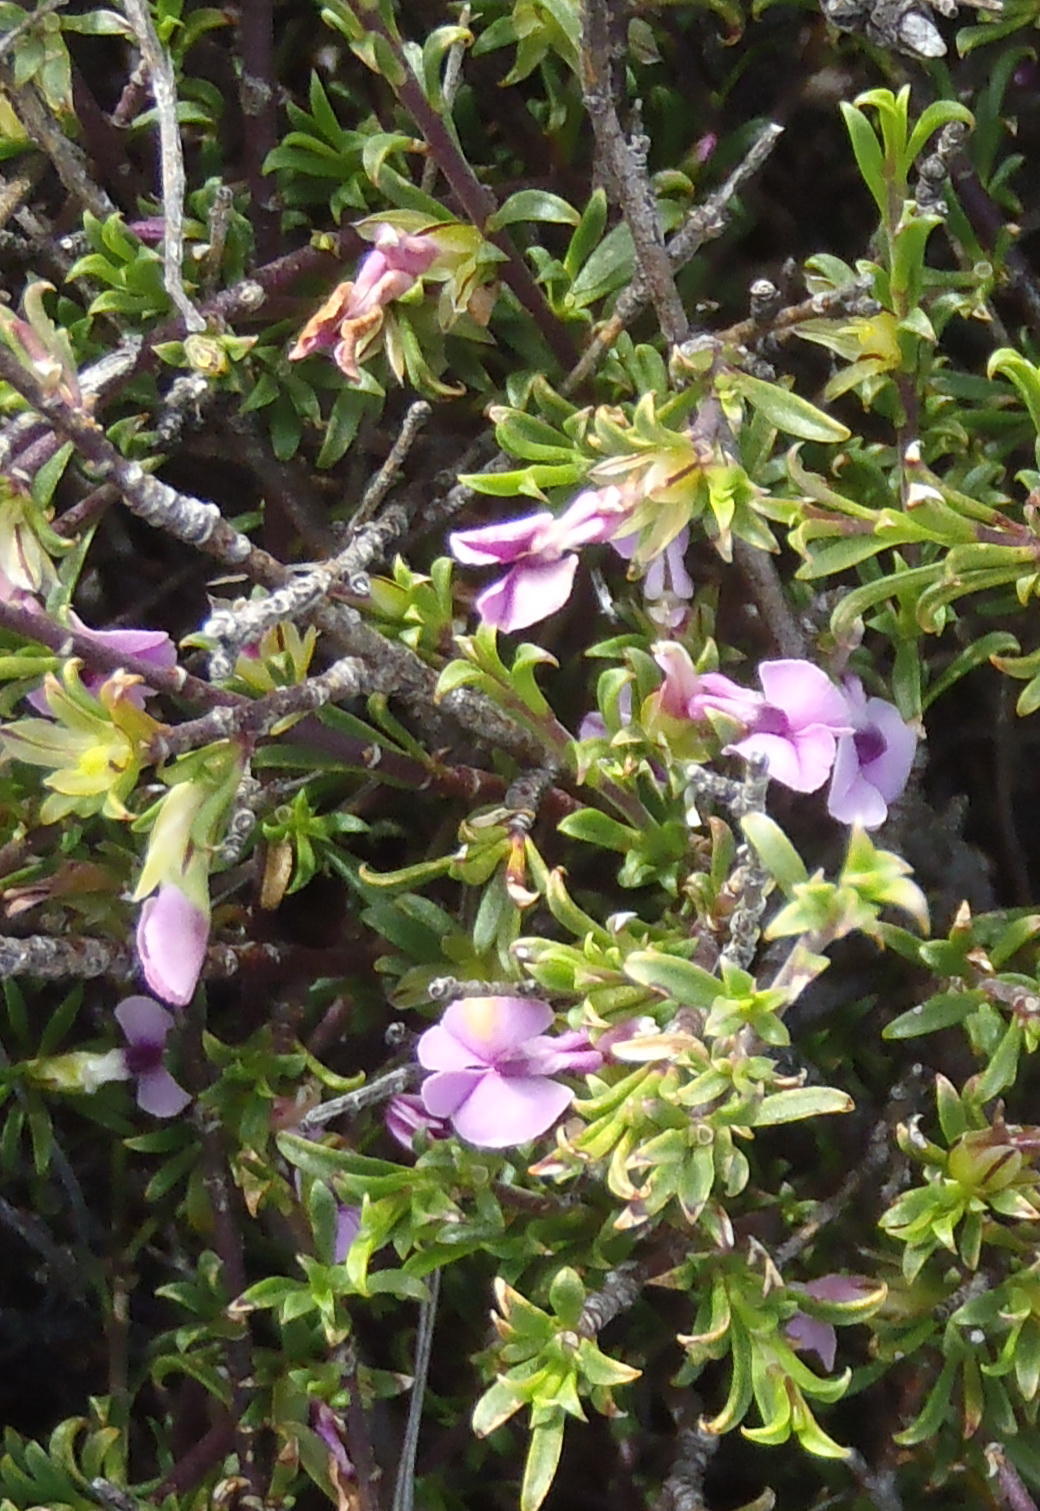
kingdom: Plantae
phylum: Tracheophyta
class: Magnoliopsida
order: Fabales
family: Polygalaceae
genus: Muraltia
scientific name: Muraltia macrocarpa
